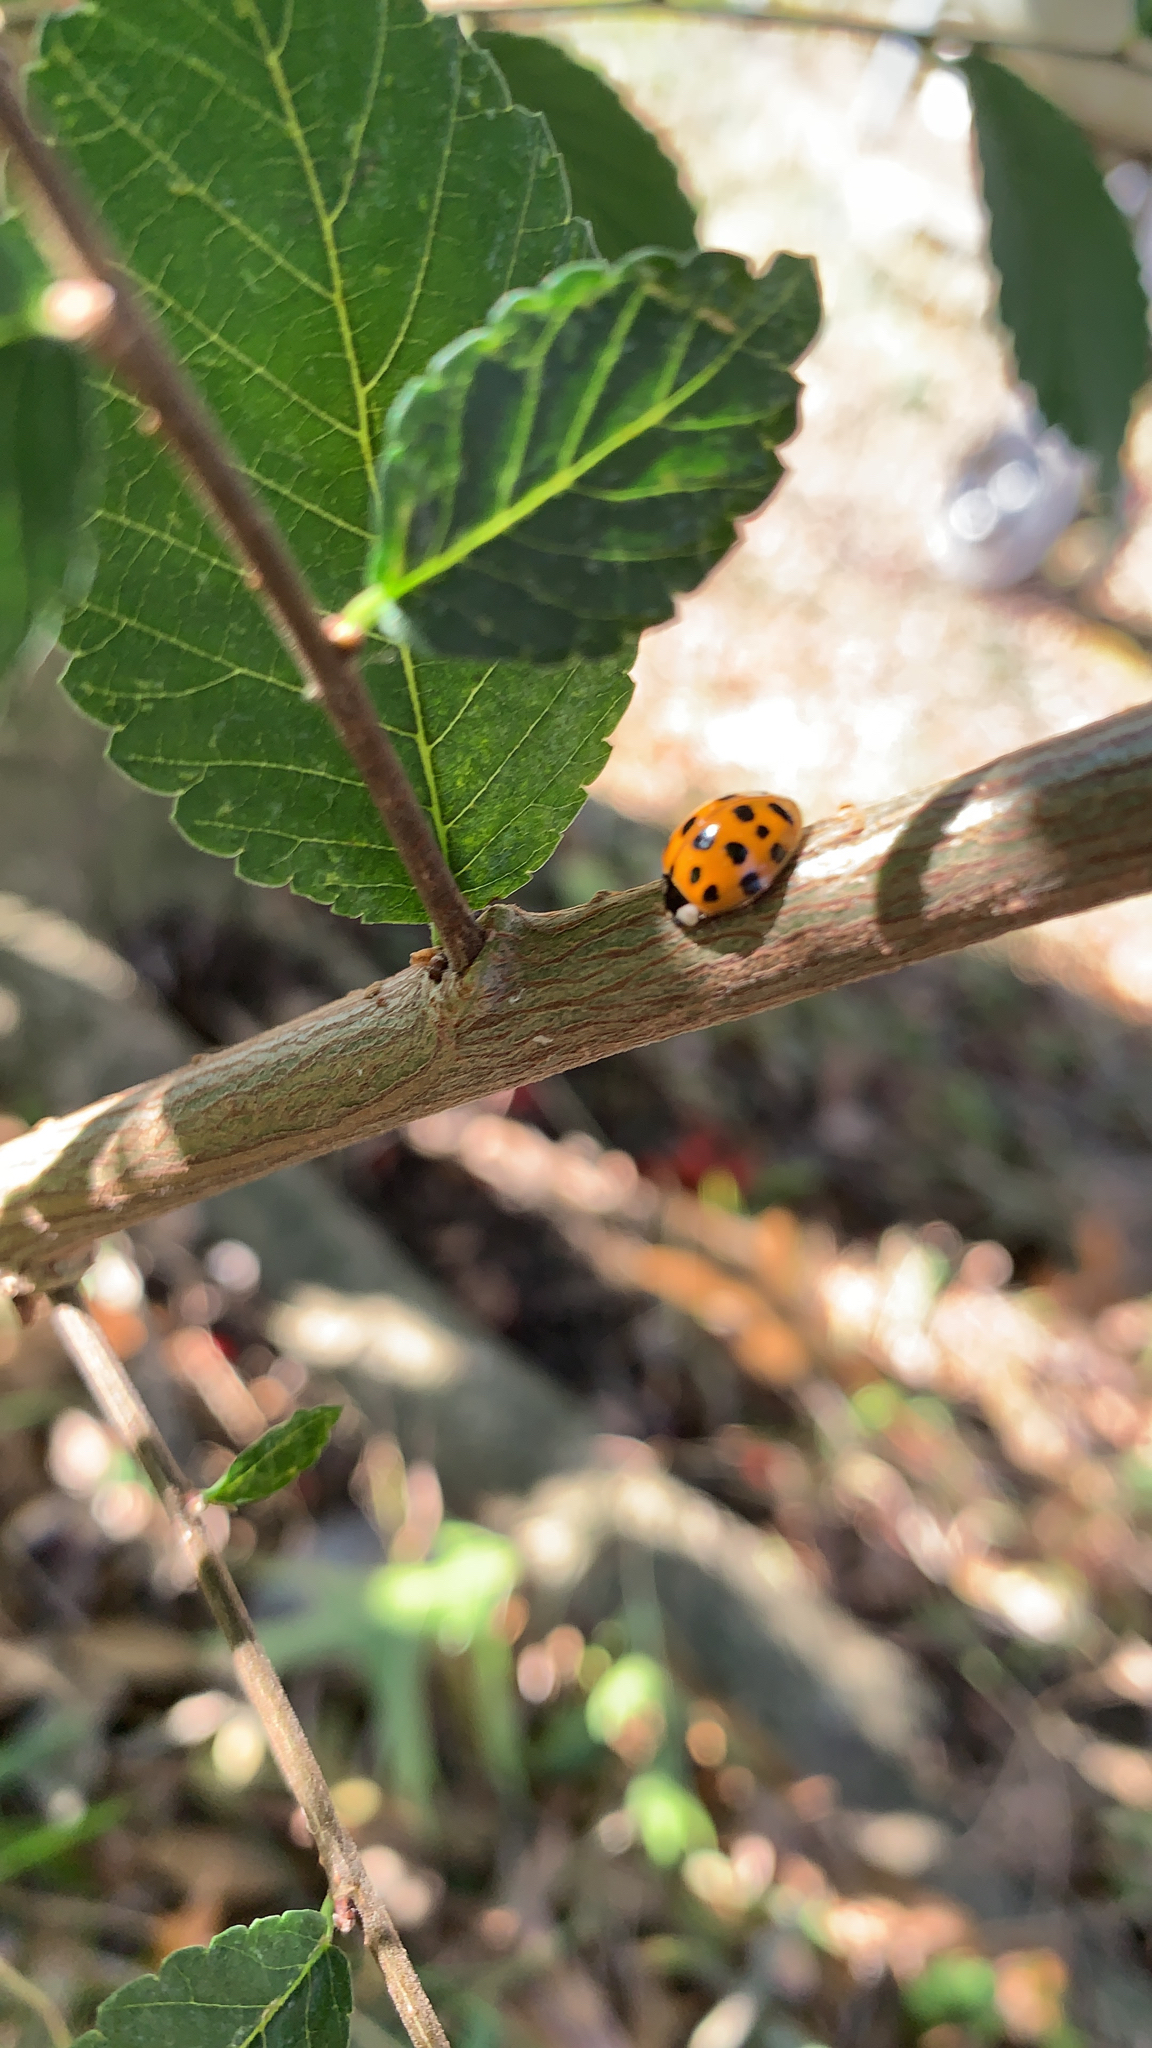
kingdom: Animalia
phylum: Arthropoda
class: Insecta
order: Coleoptera
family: Coccinellidae
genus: Harmonia
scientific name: Harmonia axyridis
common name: Harlequin ladybird
